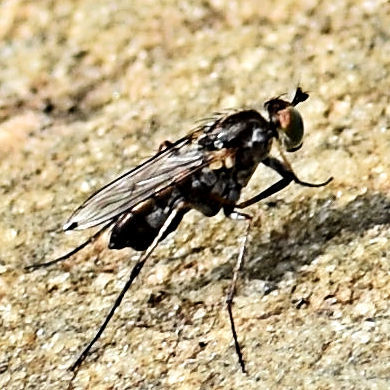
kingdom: Animalia
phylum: Arthropoda
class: Insecta
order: Diptera
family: Dolichopodidae
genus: Tachytrechus
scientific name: Tachytrechus vorax
